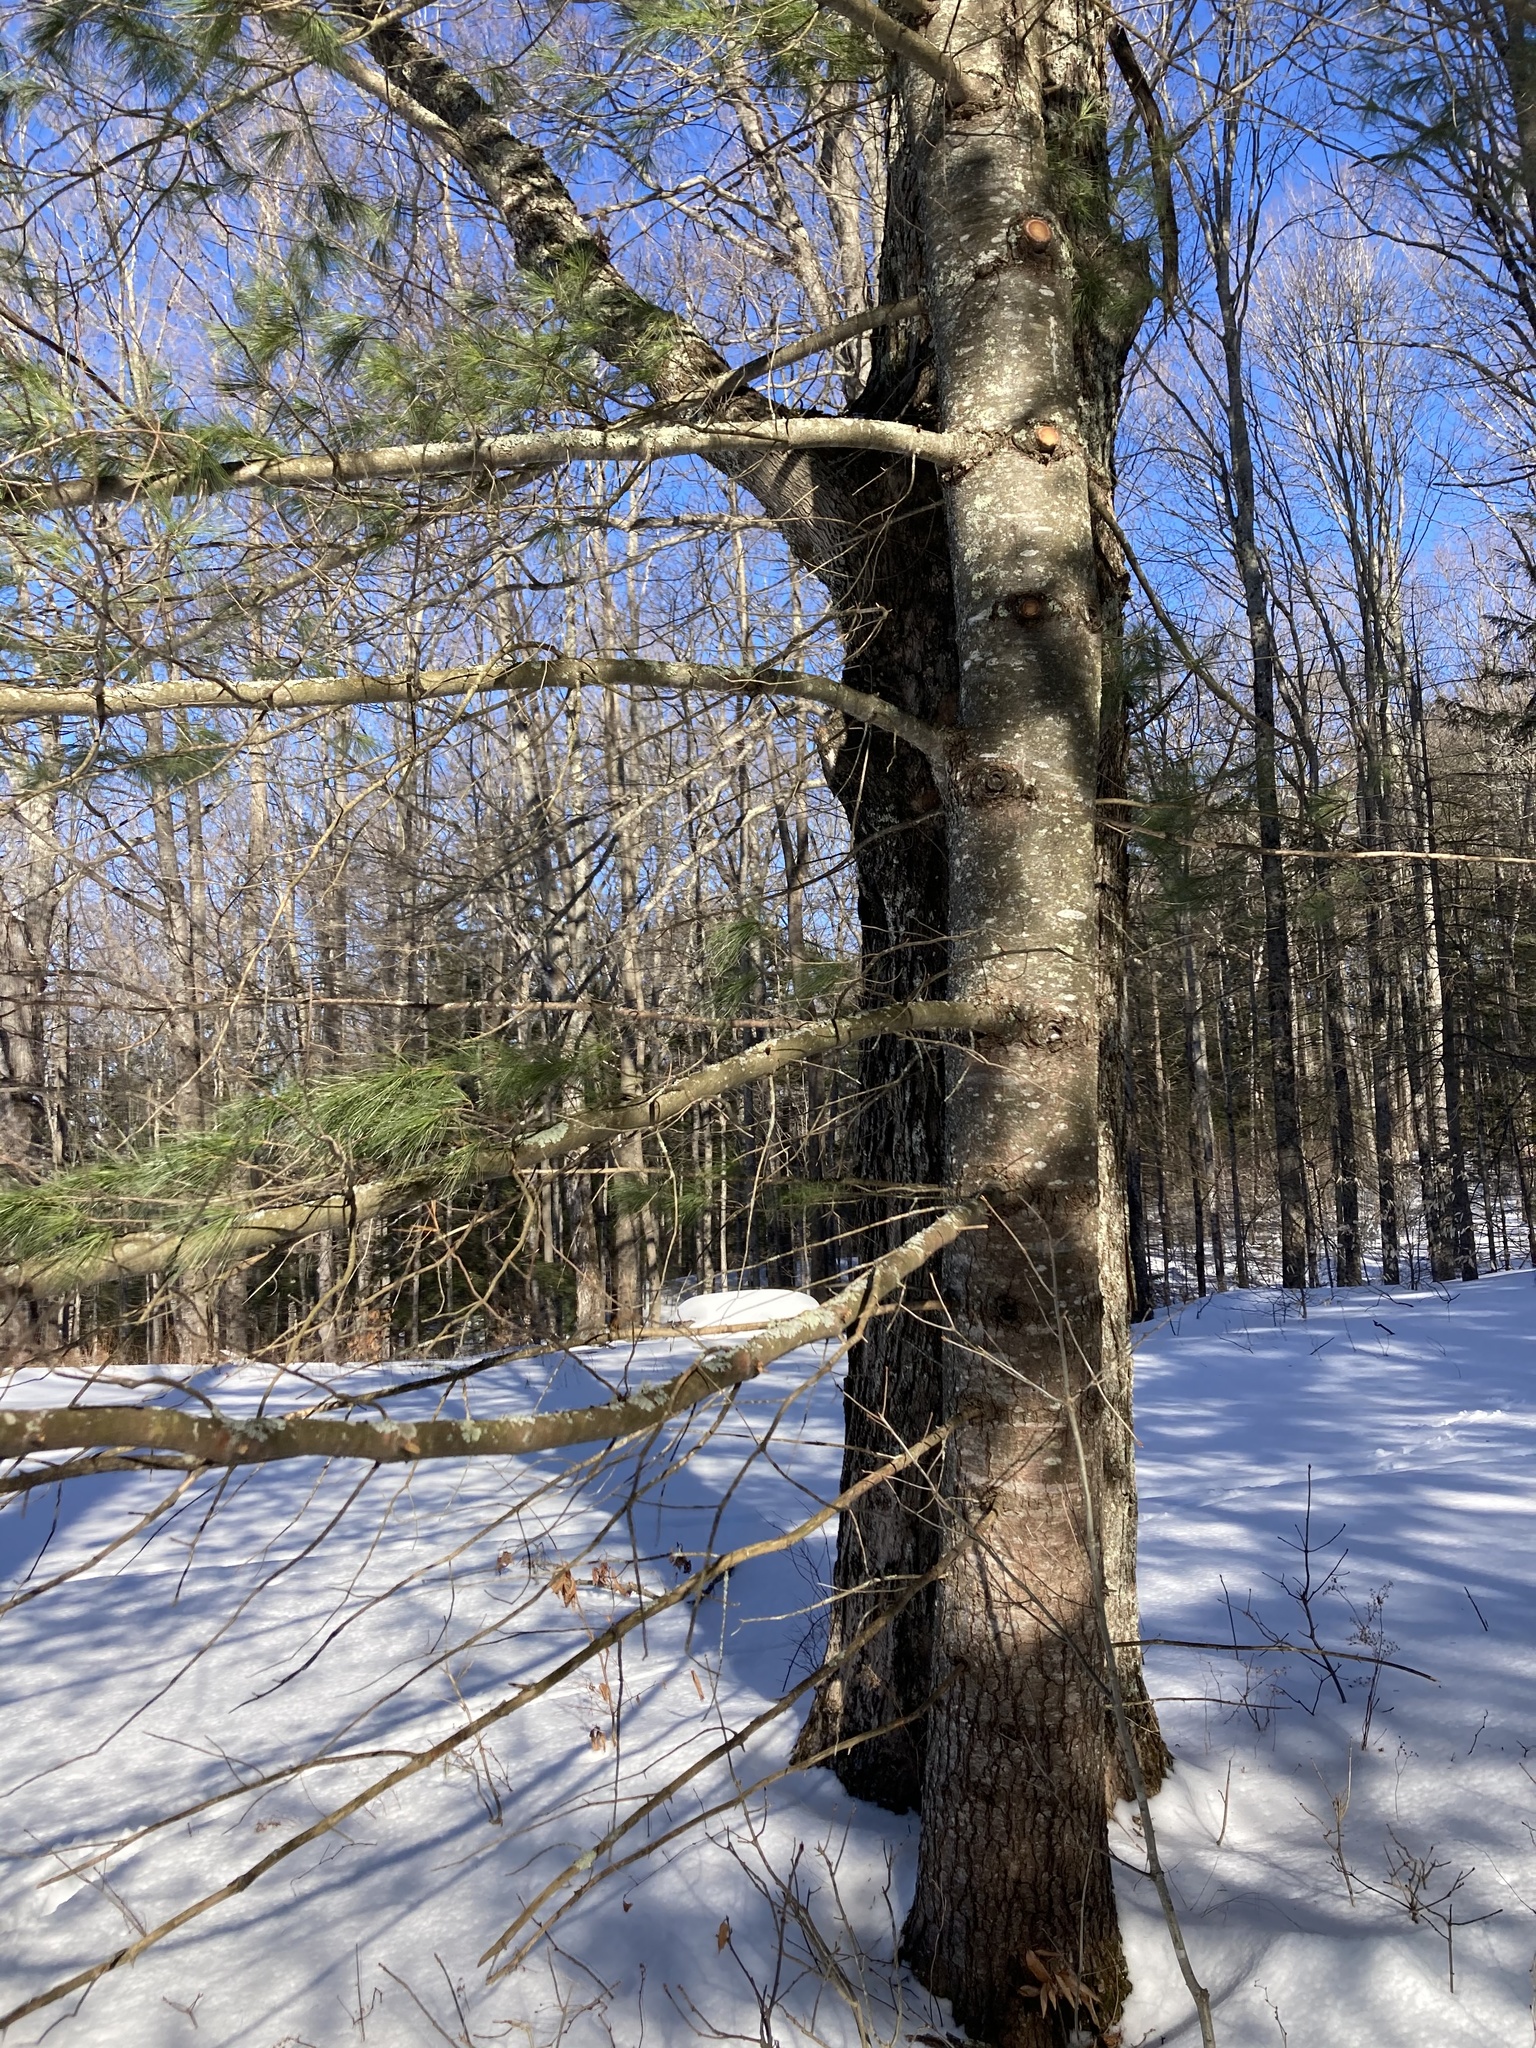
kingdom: Plantae
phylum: Tracheophyta
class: Pinopsida
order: Pinales
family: Pinaceae
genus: Pinus
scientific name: Pinus strobus
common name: Weymouth pine
